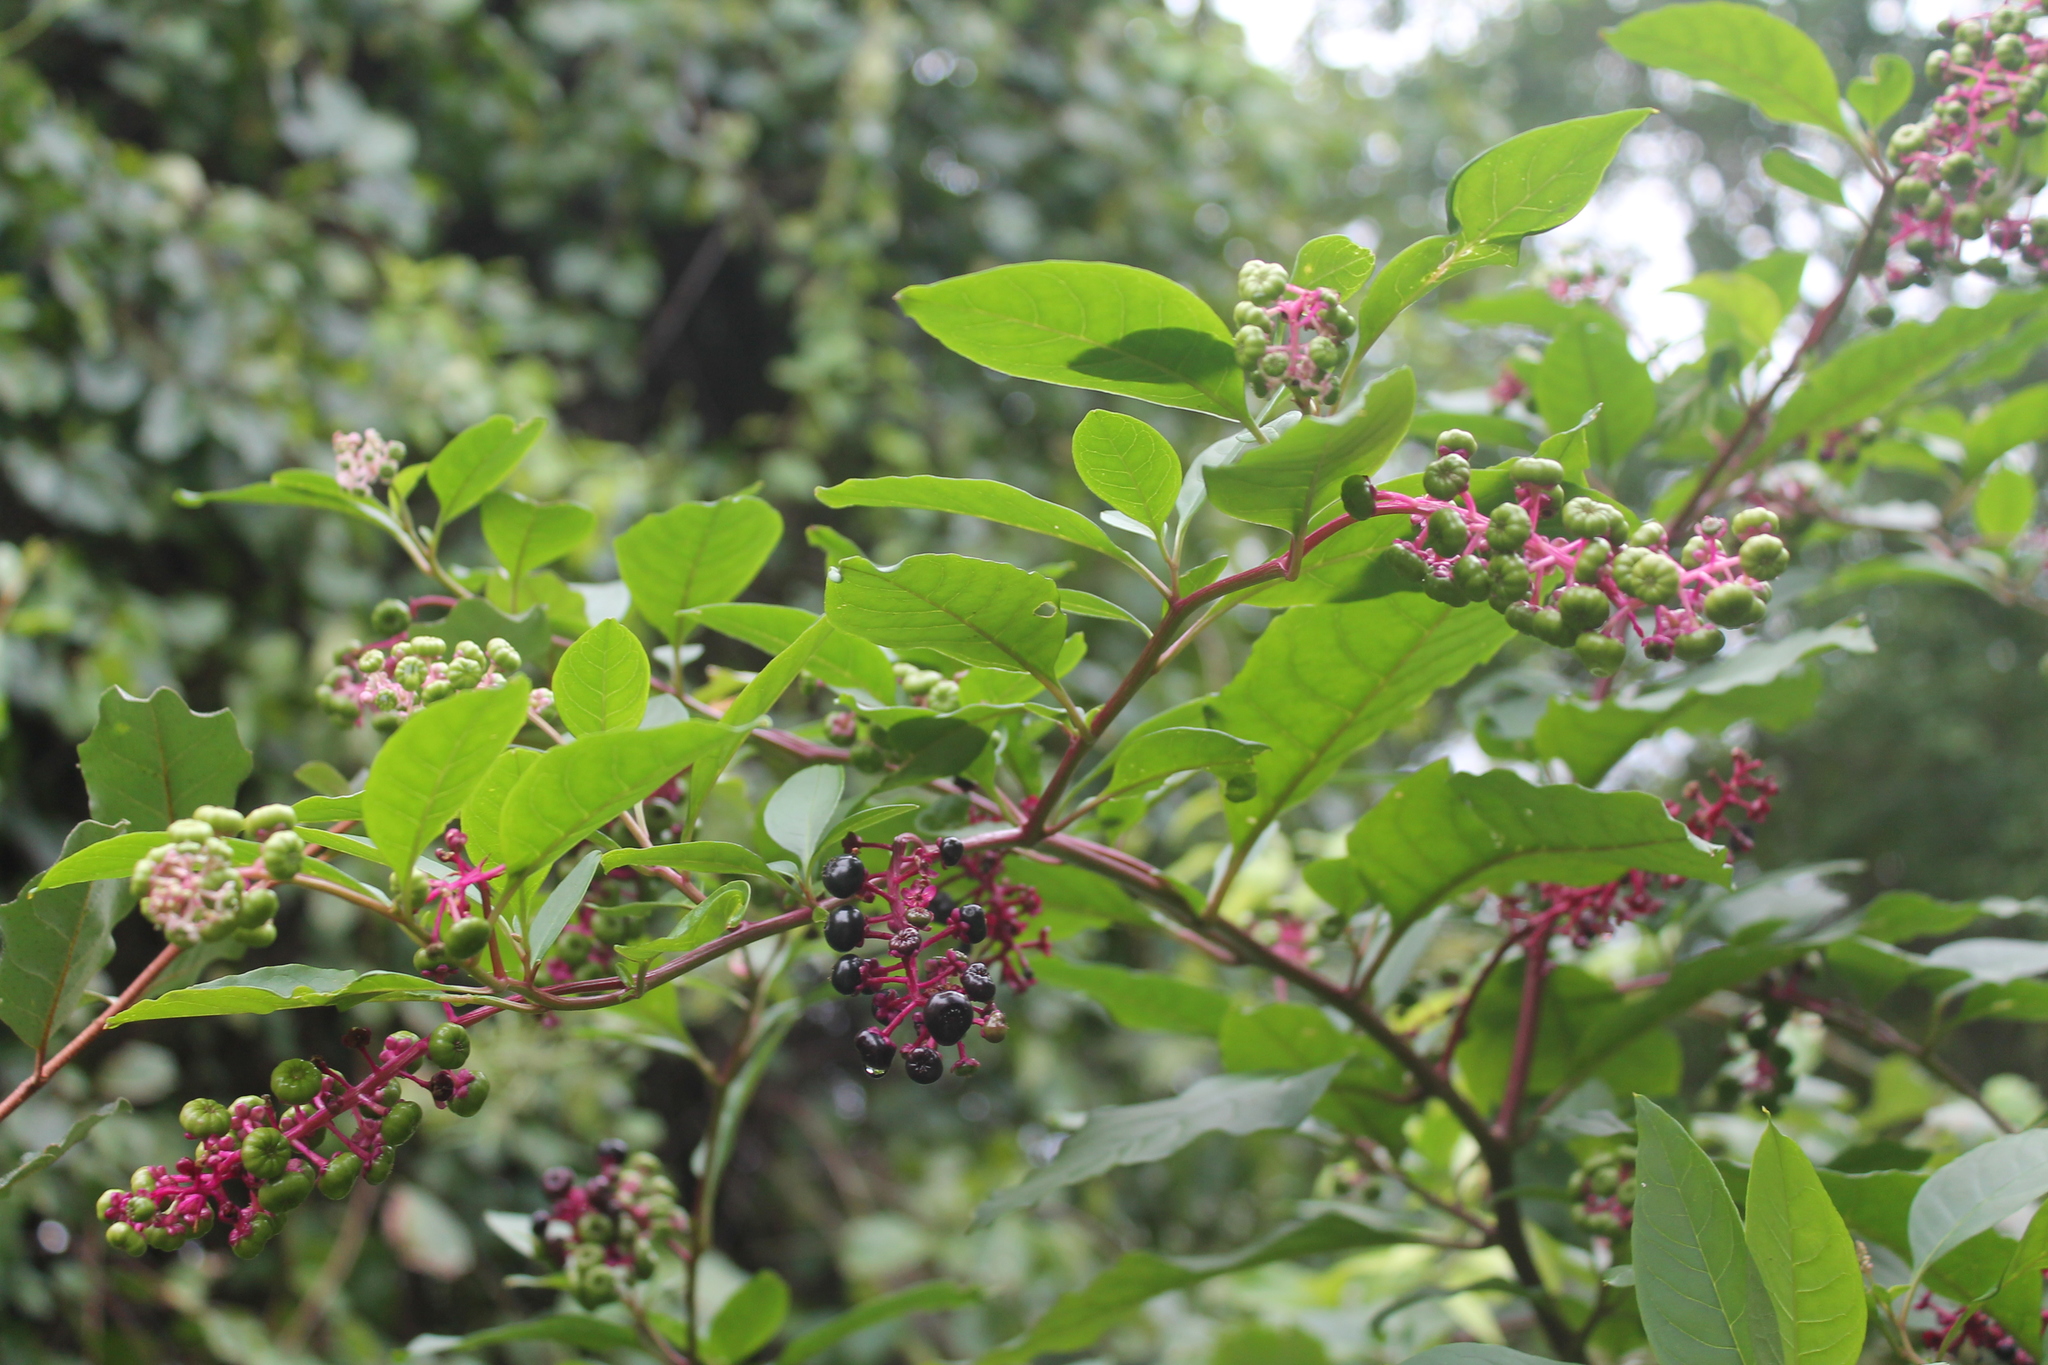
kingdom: Plantae
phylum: Tracheophyta
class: Magnoliopsida
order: Caryophyllales
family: Phytolaccaceae
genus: Phytolacca
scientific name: Phytolacca americana
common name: American pokeweed
